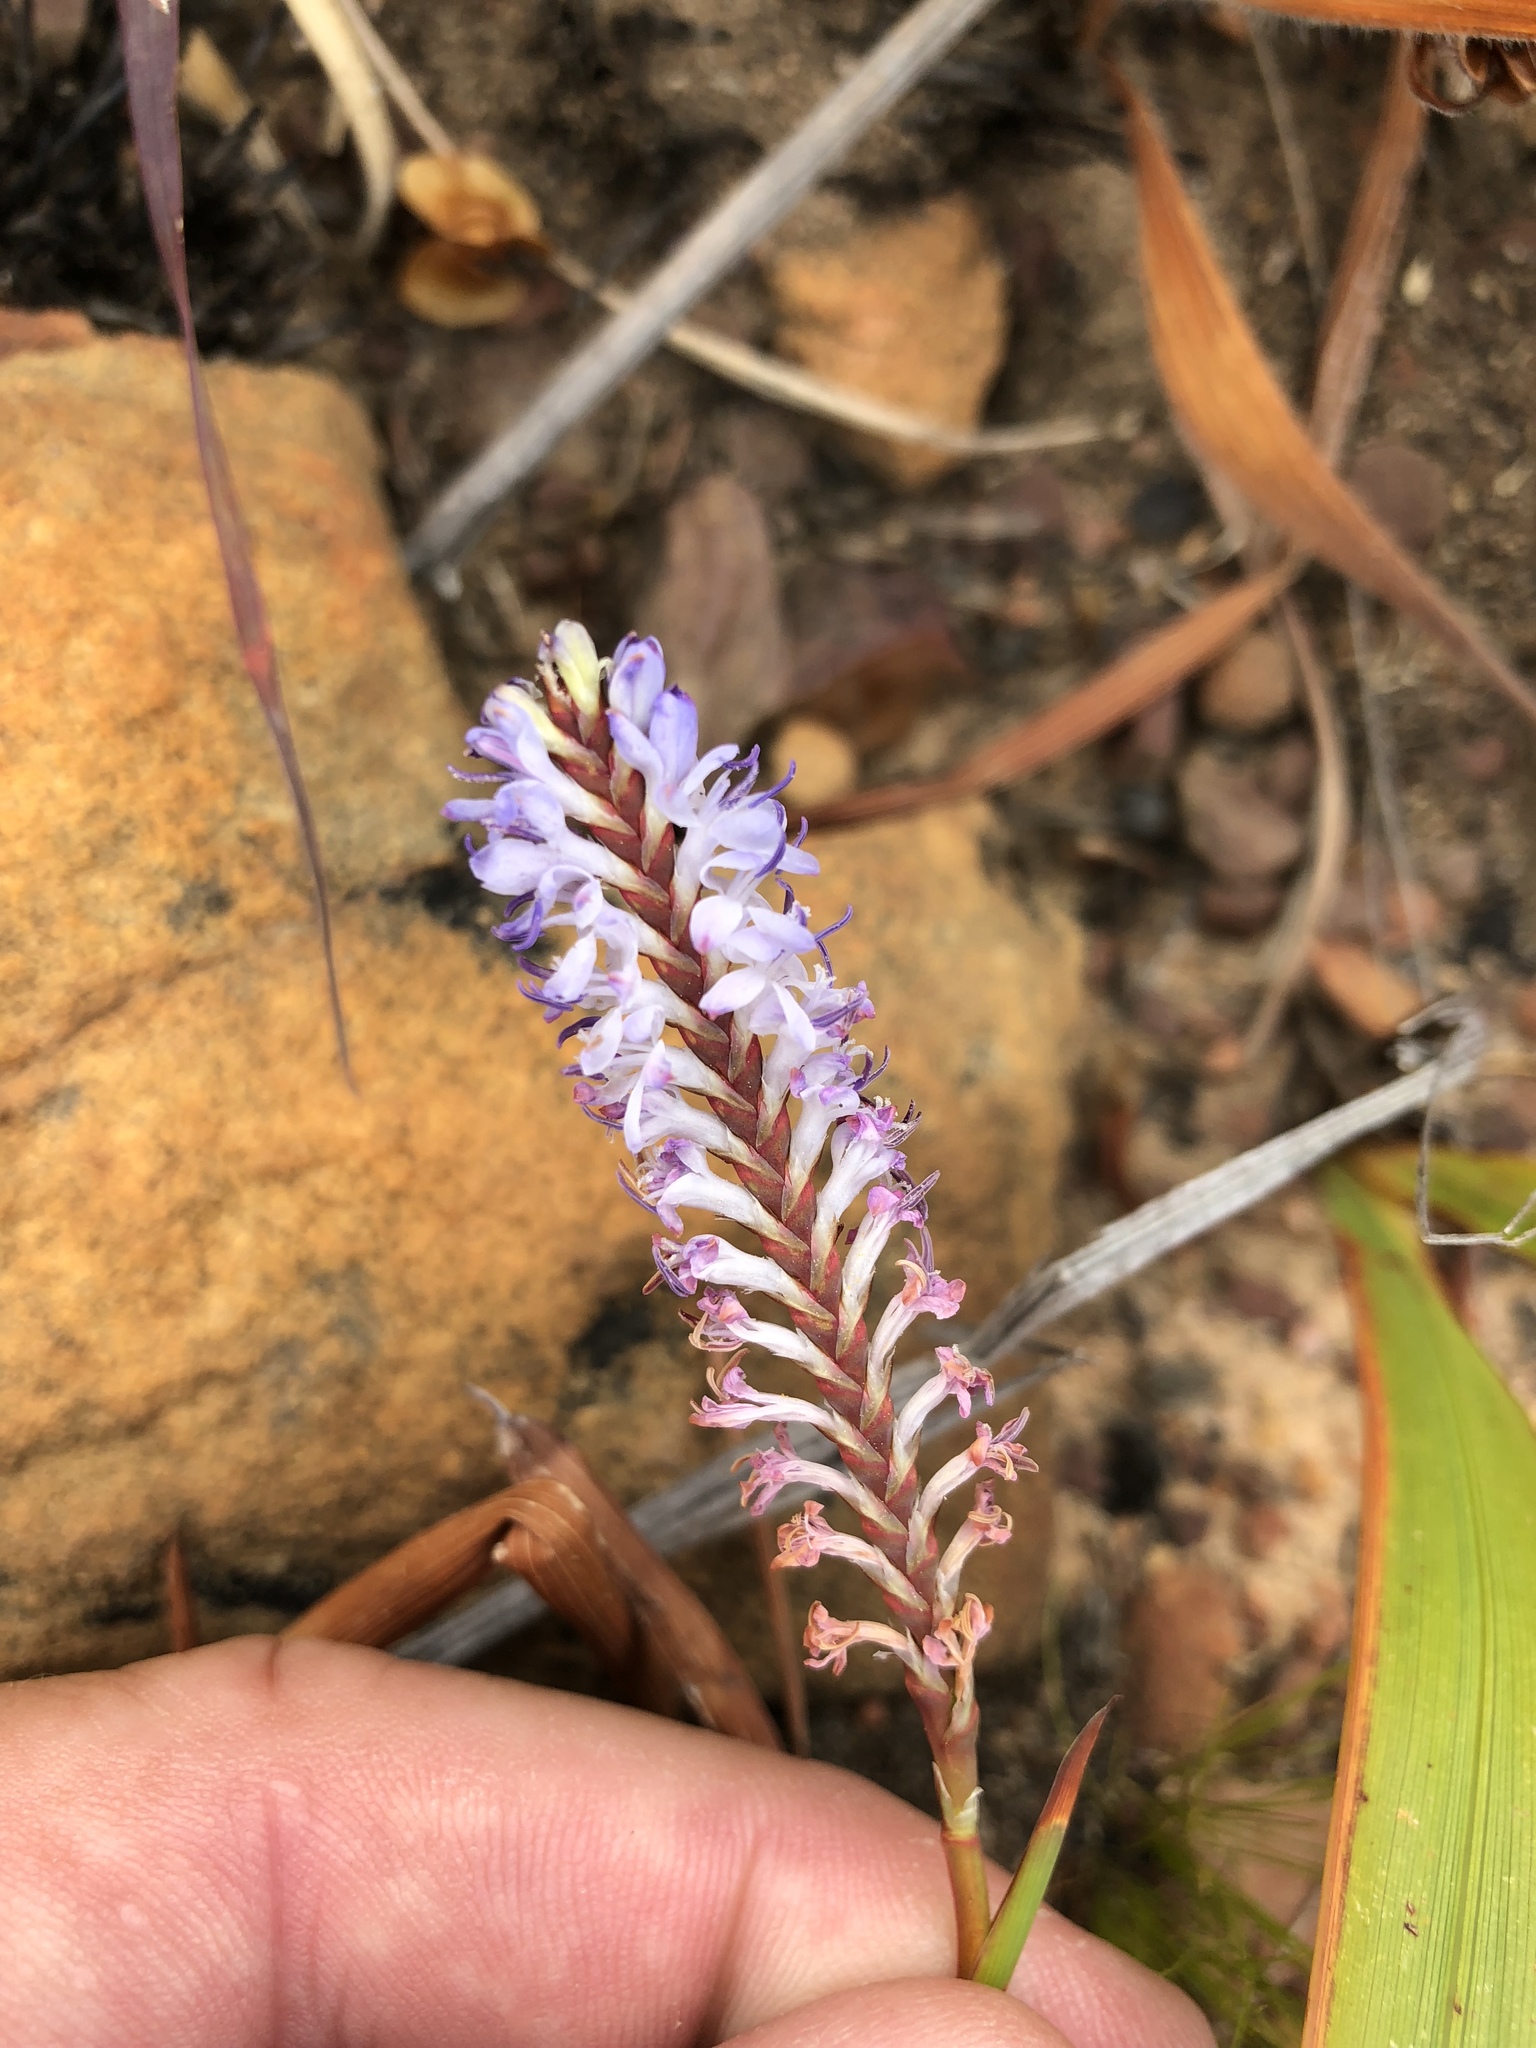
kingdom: Plantae
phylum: Tracheophyta
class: Liliopsida
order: Asparagales
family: Iridaceae
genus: Micranthus
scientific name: Micranthus plantagineus
